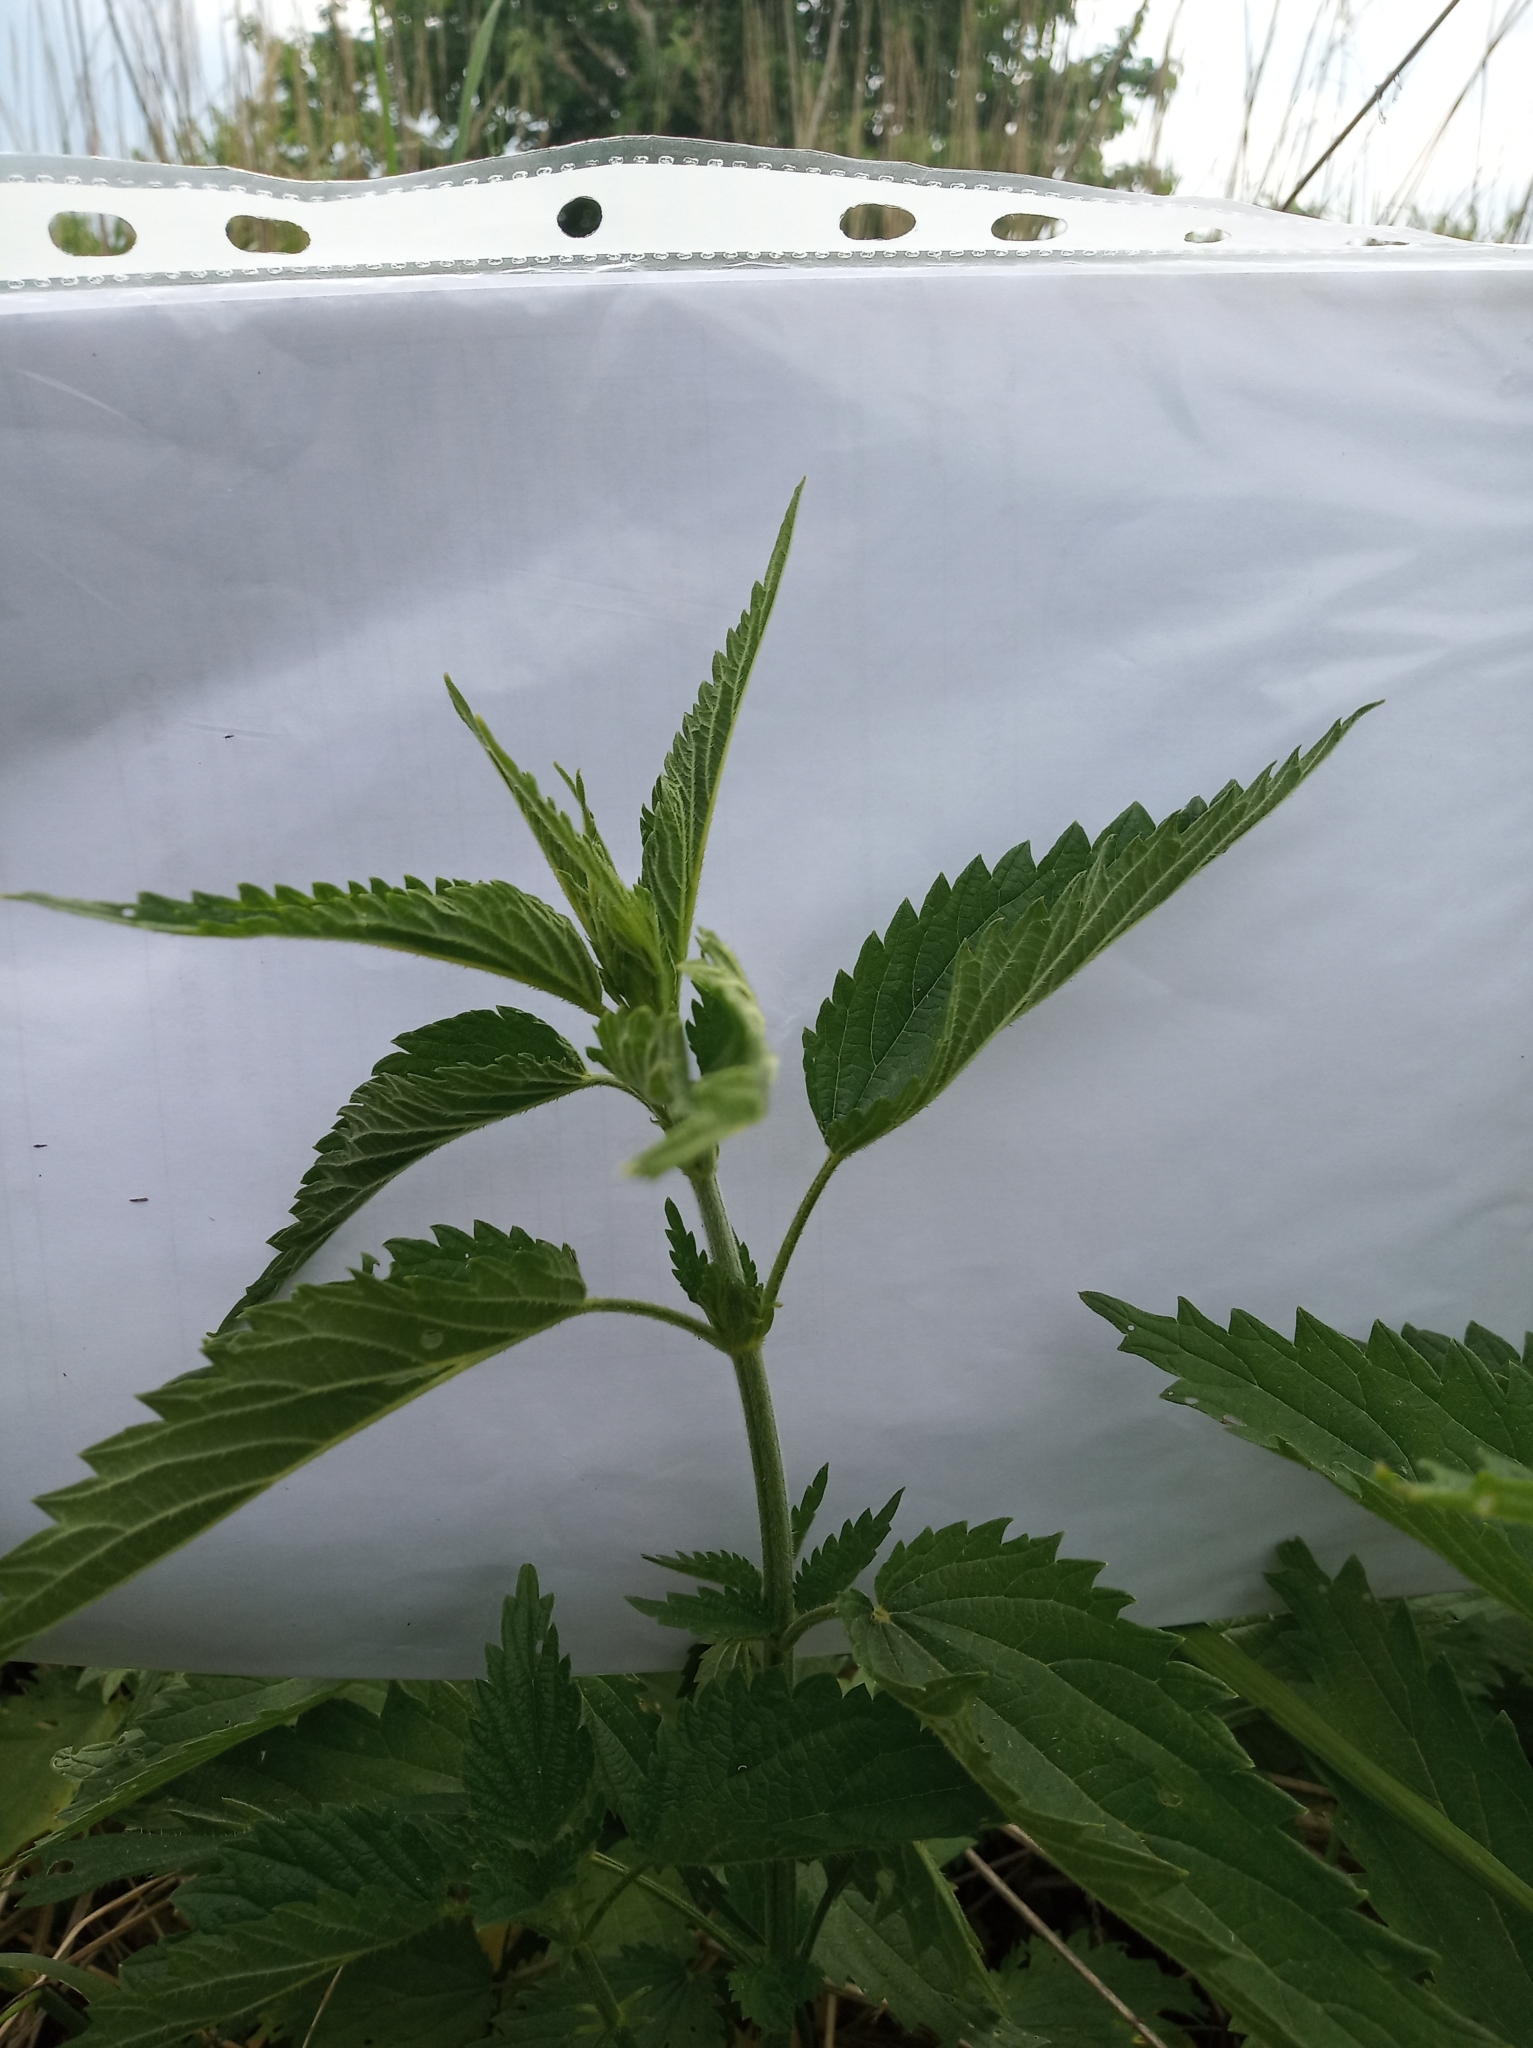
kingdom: Plantae
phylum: Tracheophyta
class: Magnoliopsida
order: Rosales
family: Urticaceae
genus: Urtica
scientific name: Urtica dioica
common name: Common nettle
